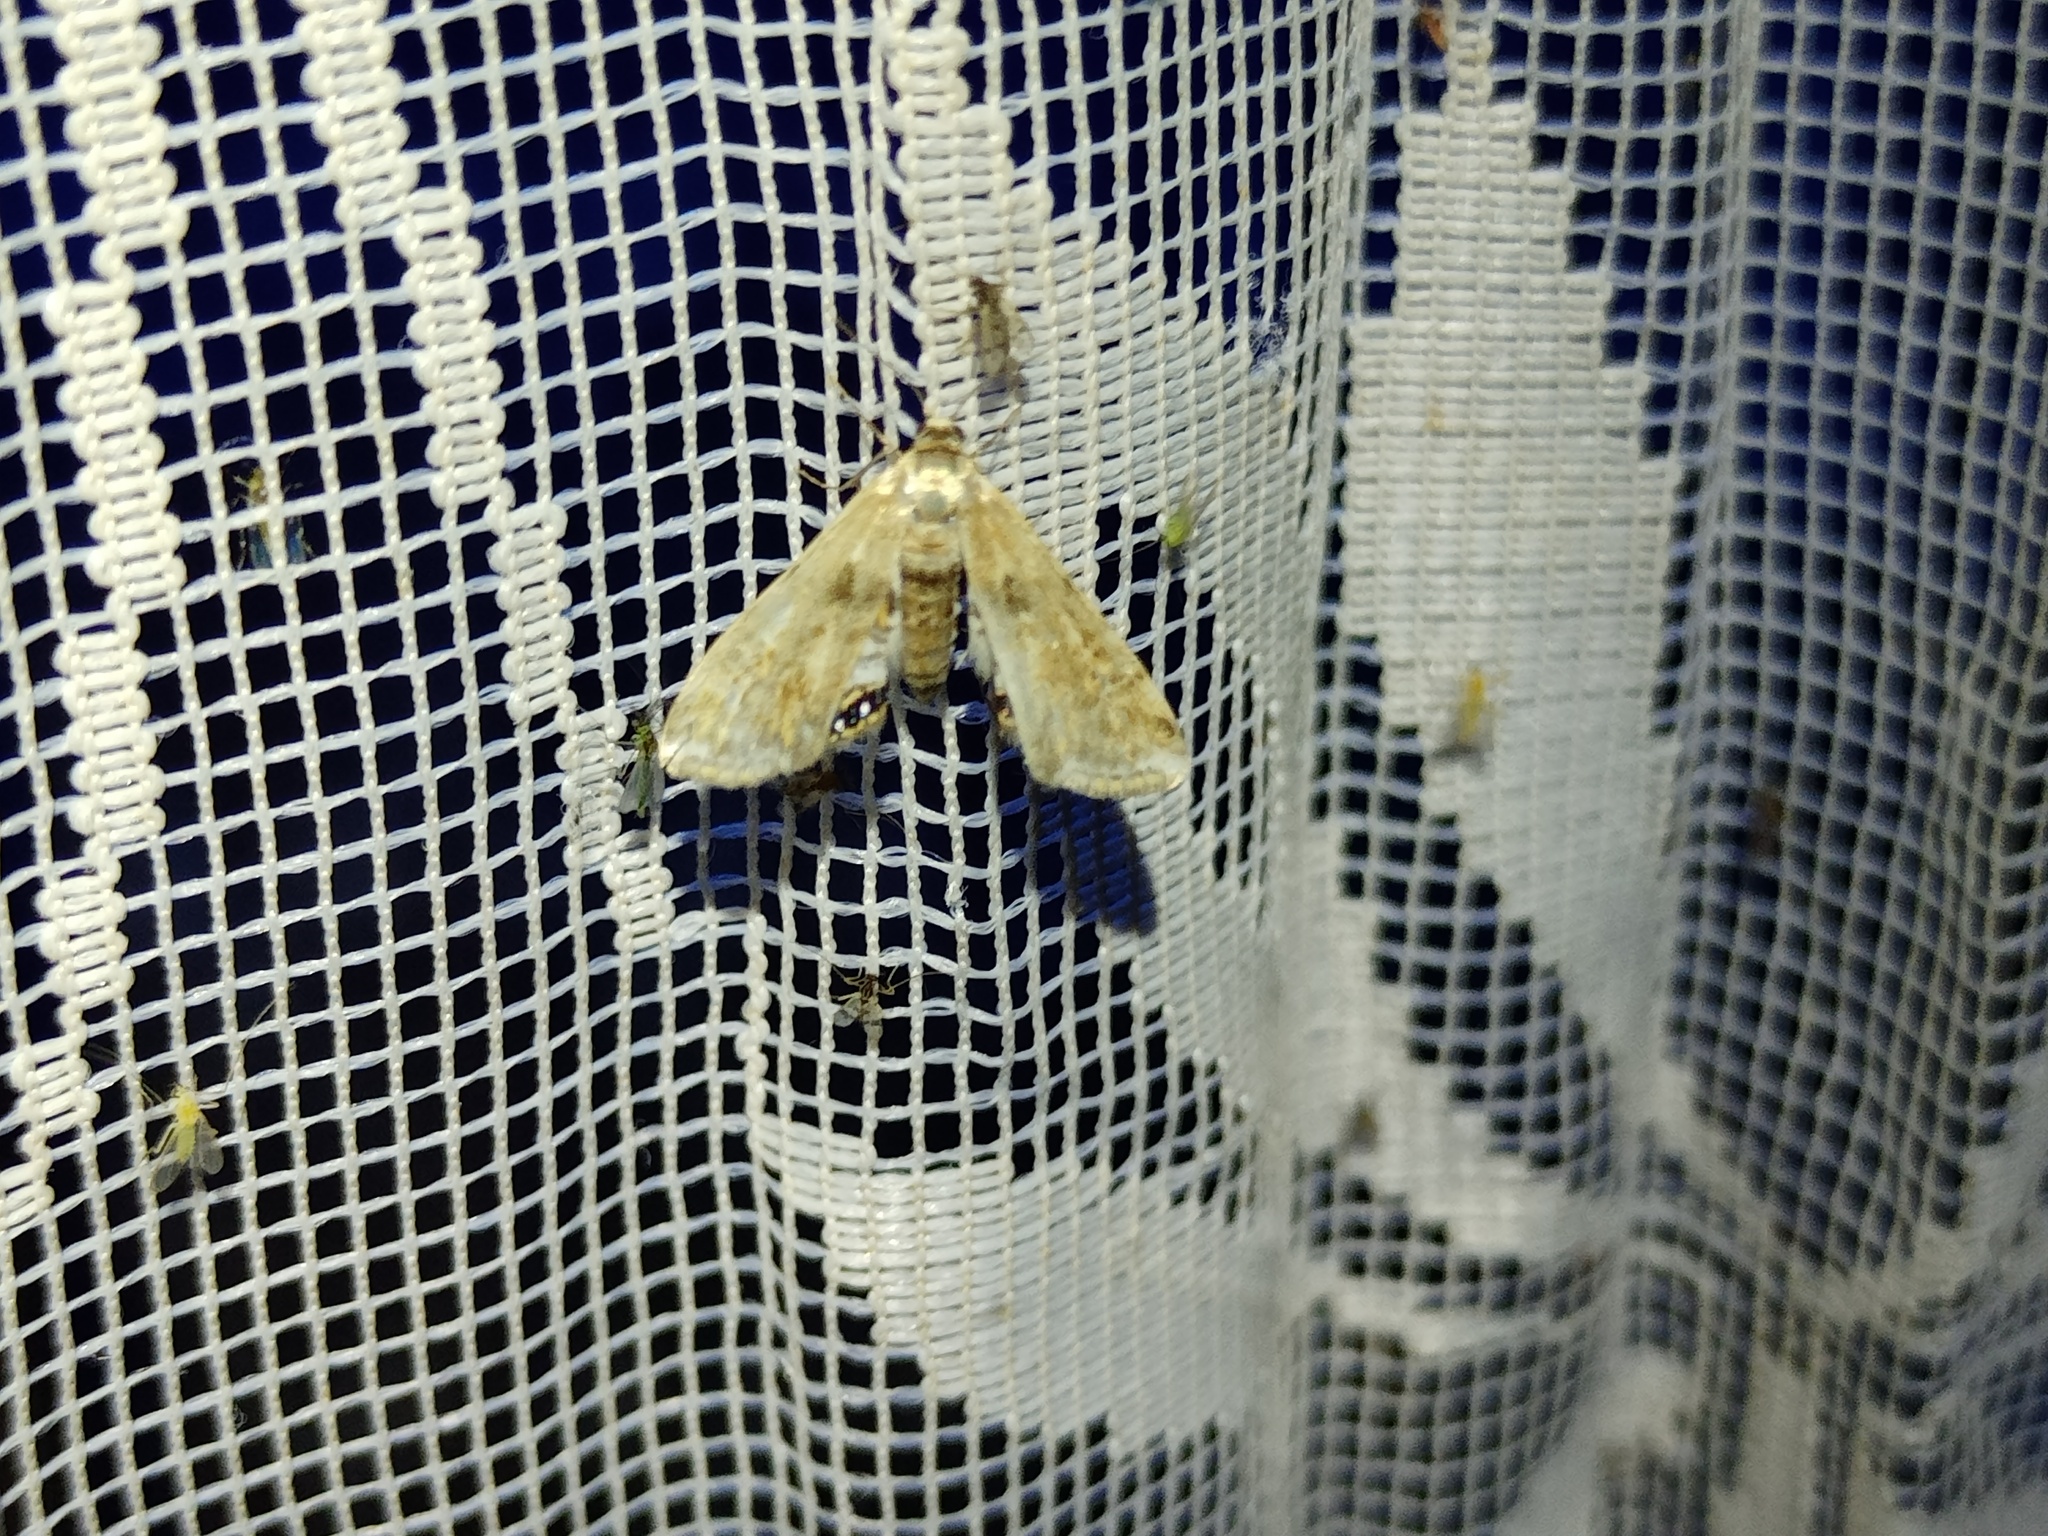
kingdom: Animalia
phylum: Arthropoda
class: Insecta
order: Lepidoptera
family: Crambidae
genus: Cataclysta
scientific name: Cataclysta lemnata
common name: Small china-mark
